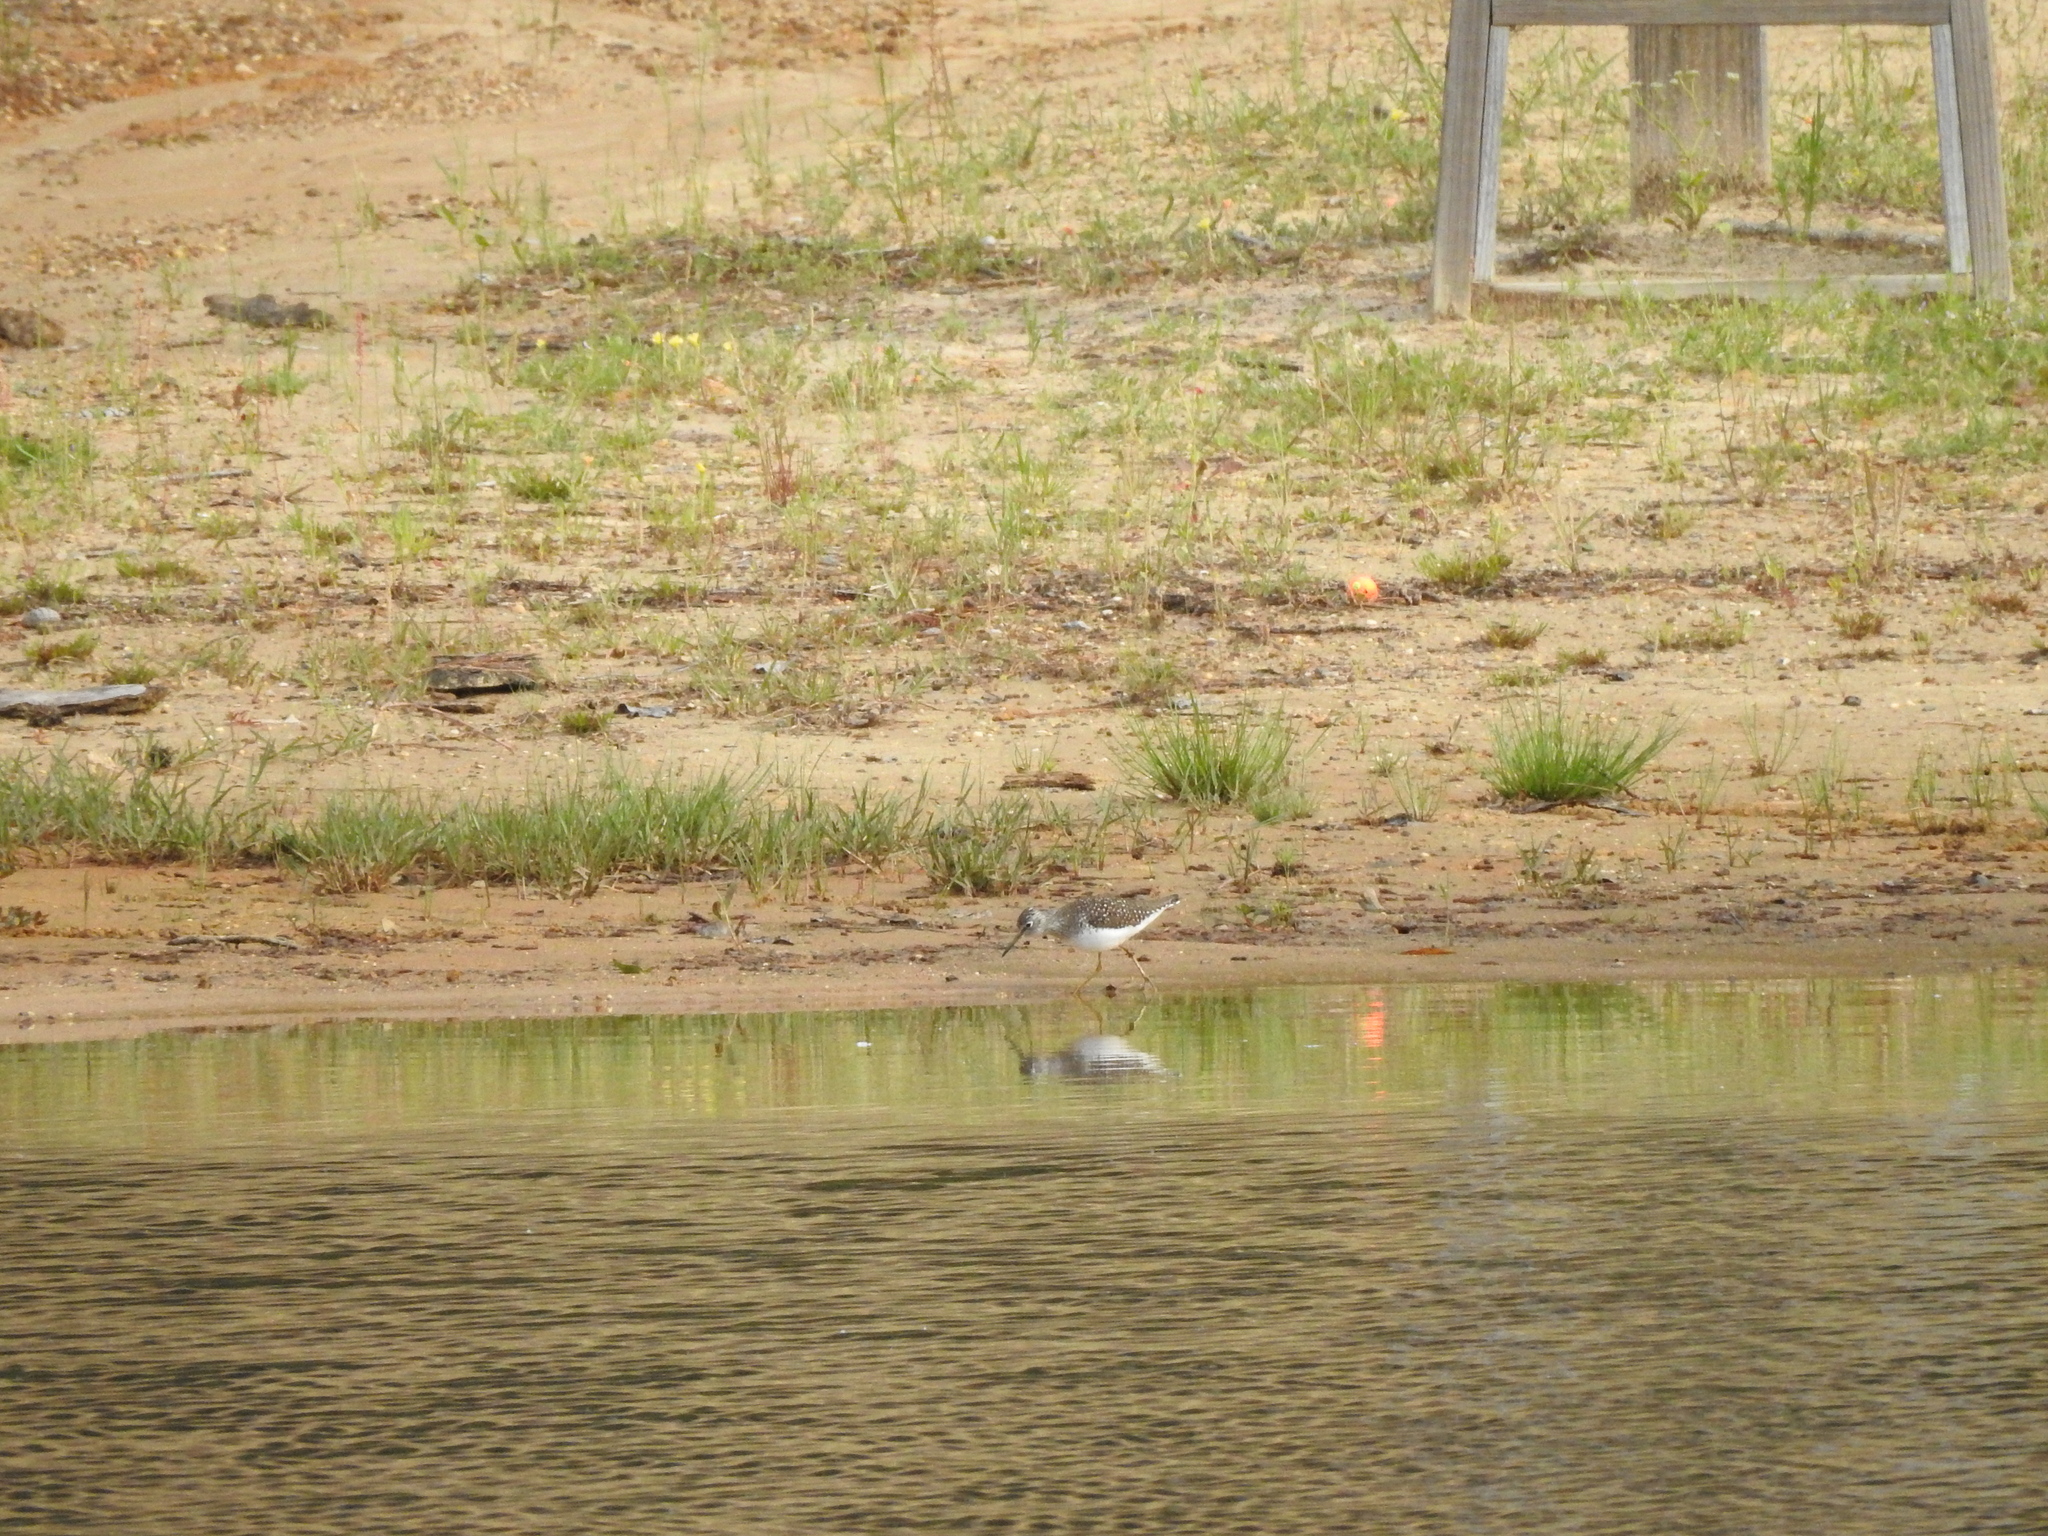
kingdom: Animalia
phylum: Chordata
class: Aves
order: Charadriiformes
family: Scolopacidae
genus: Tringa
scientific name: Tringa solitaria
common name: Solitary sandpiper
